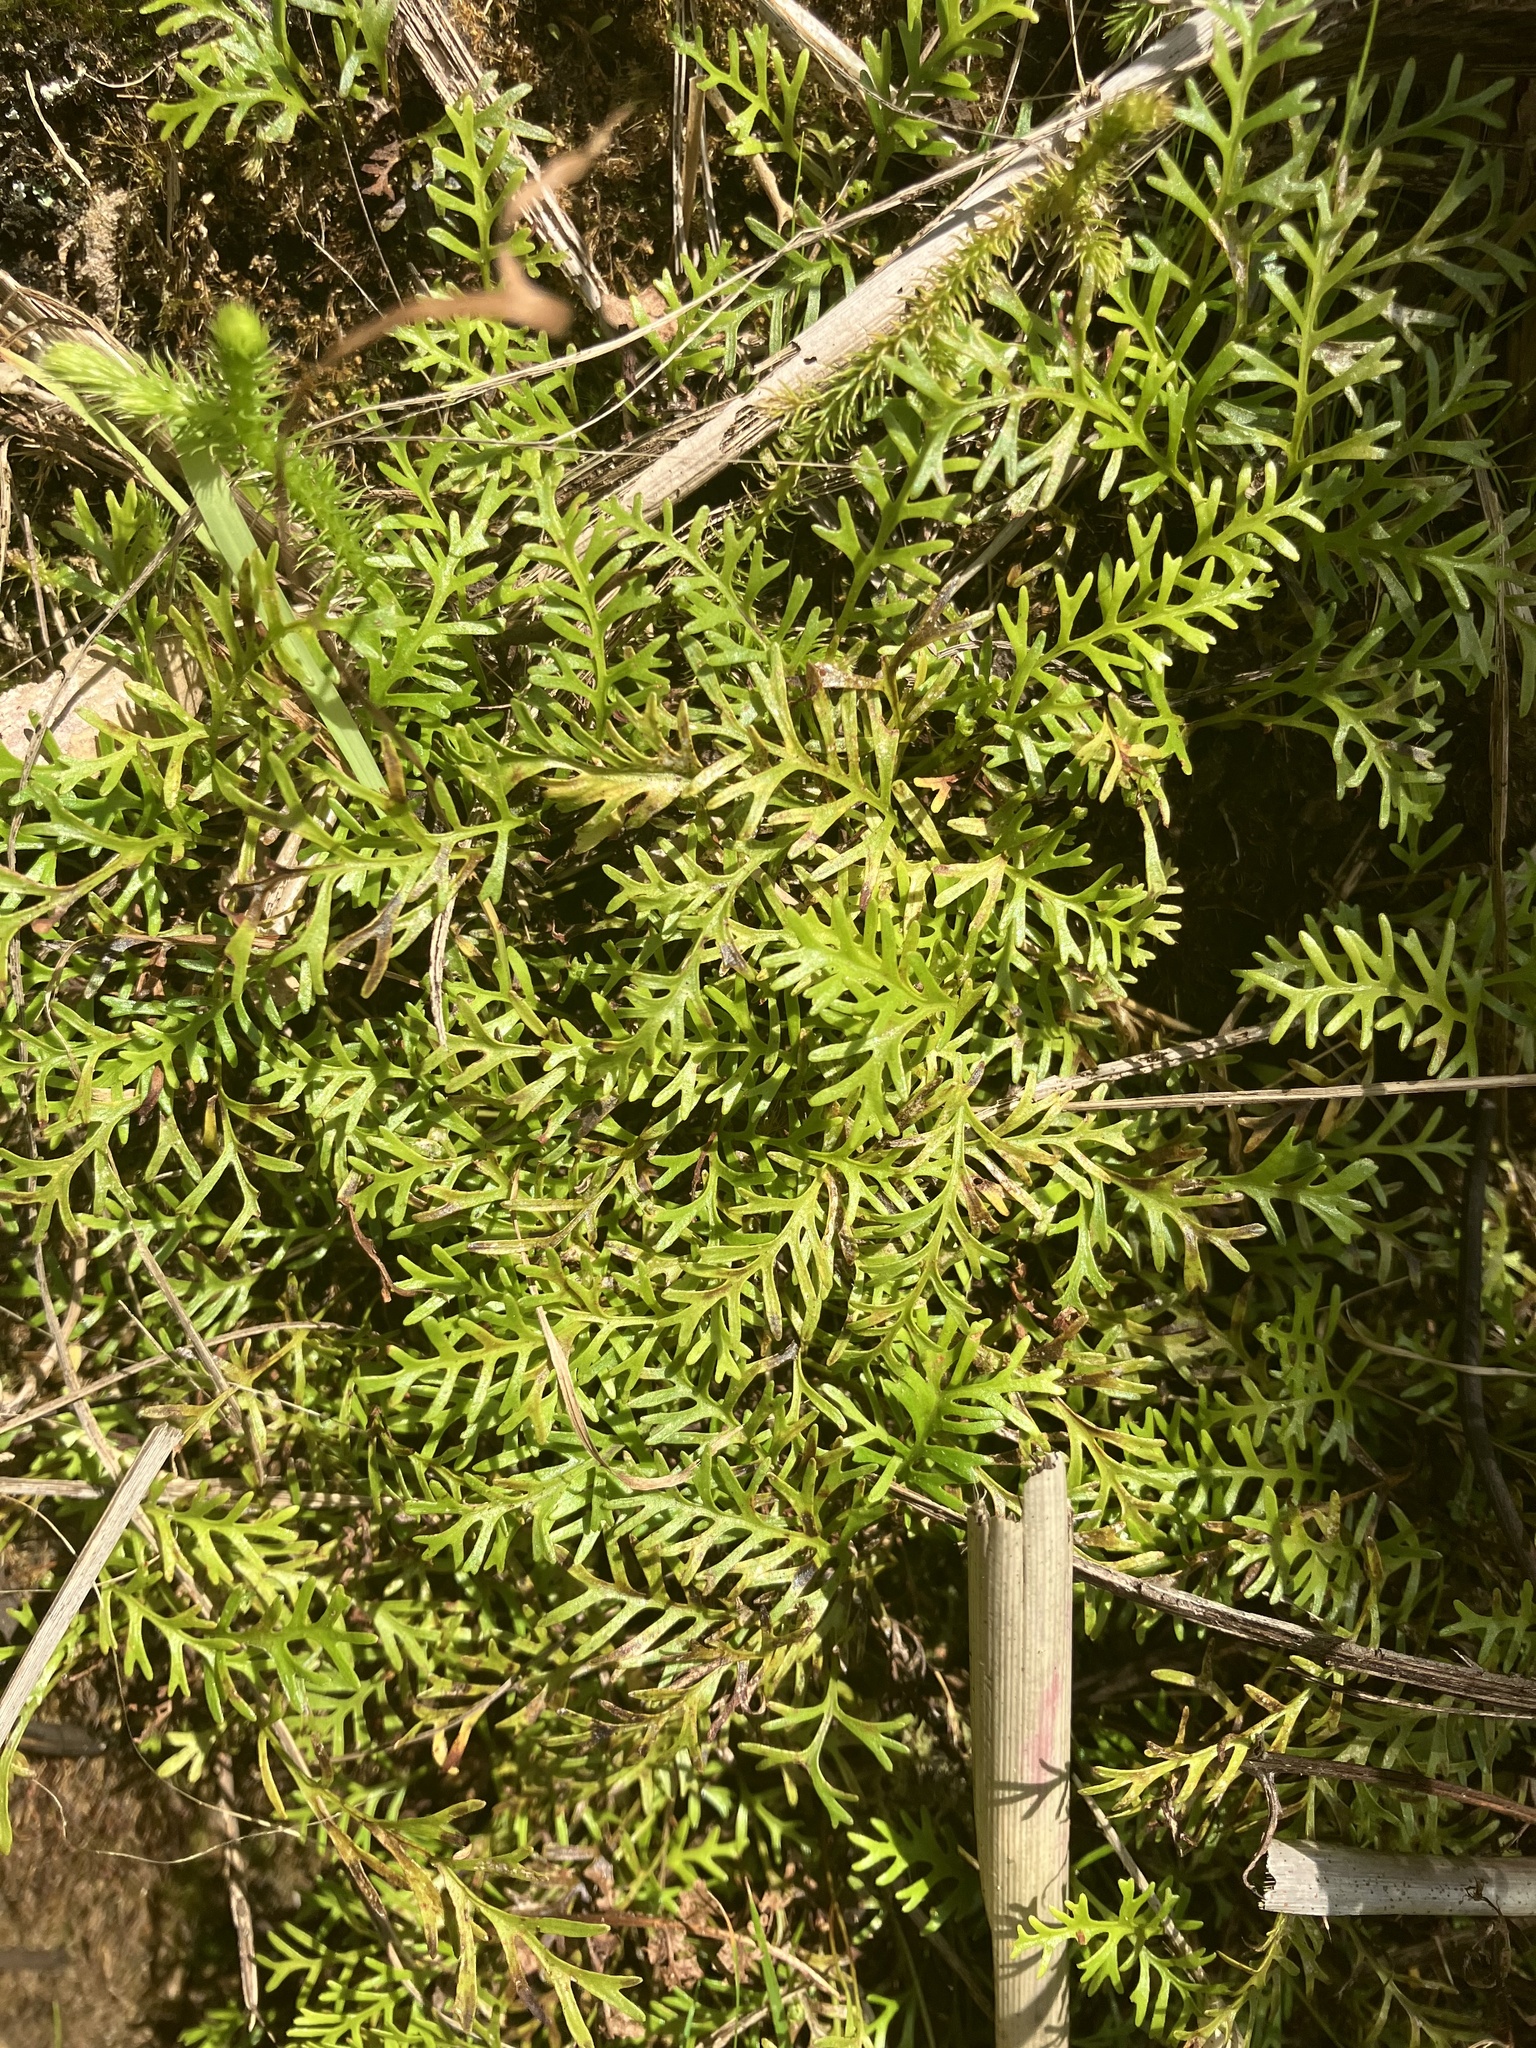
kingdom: Plantae
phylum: Tracheophyta
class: Polypodiopsida
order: Polypodiales
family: Dryopteridaceae
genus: Elaphoglossum
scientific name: Elaphoglossum furcatum
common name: Mossy fern
